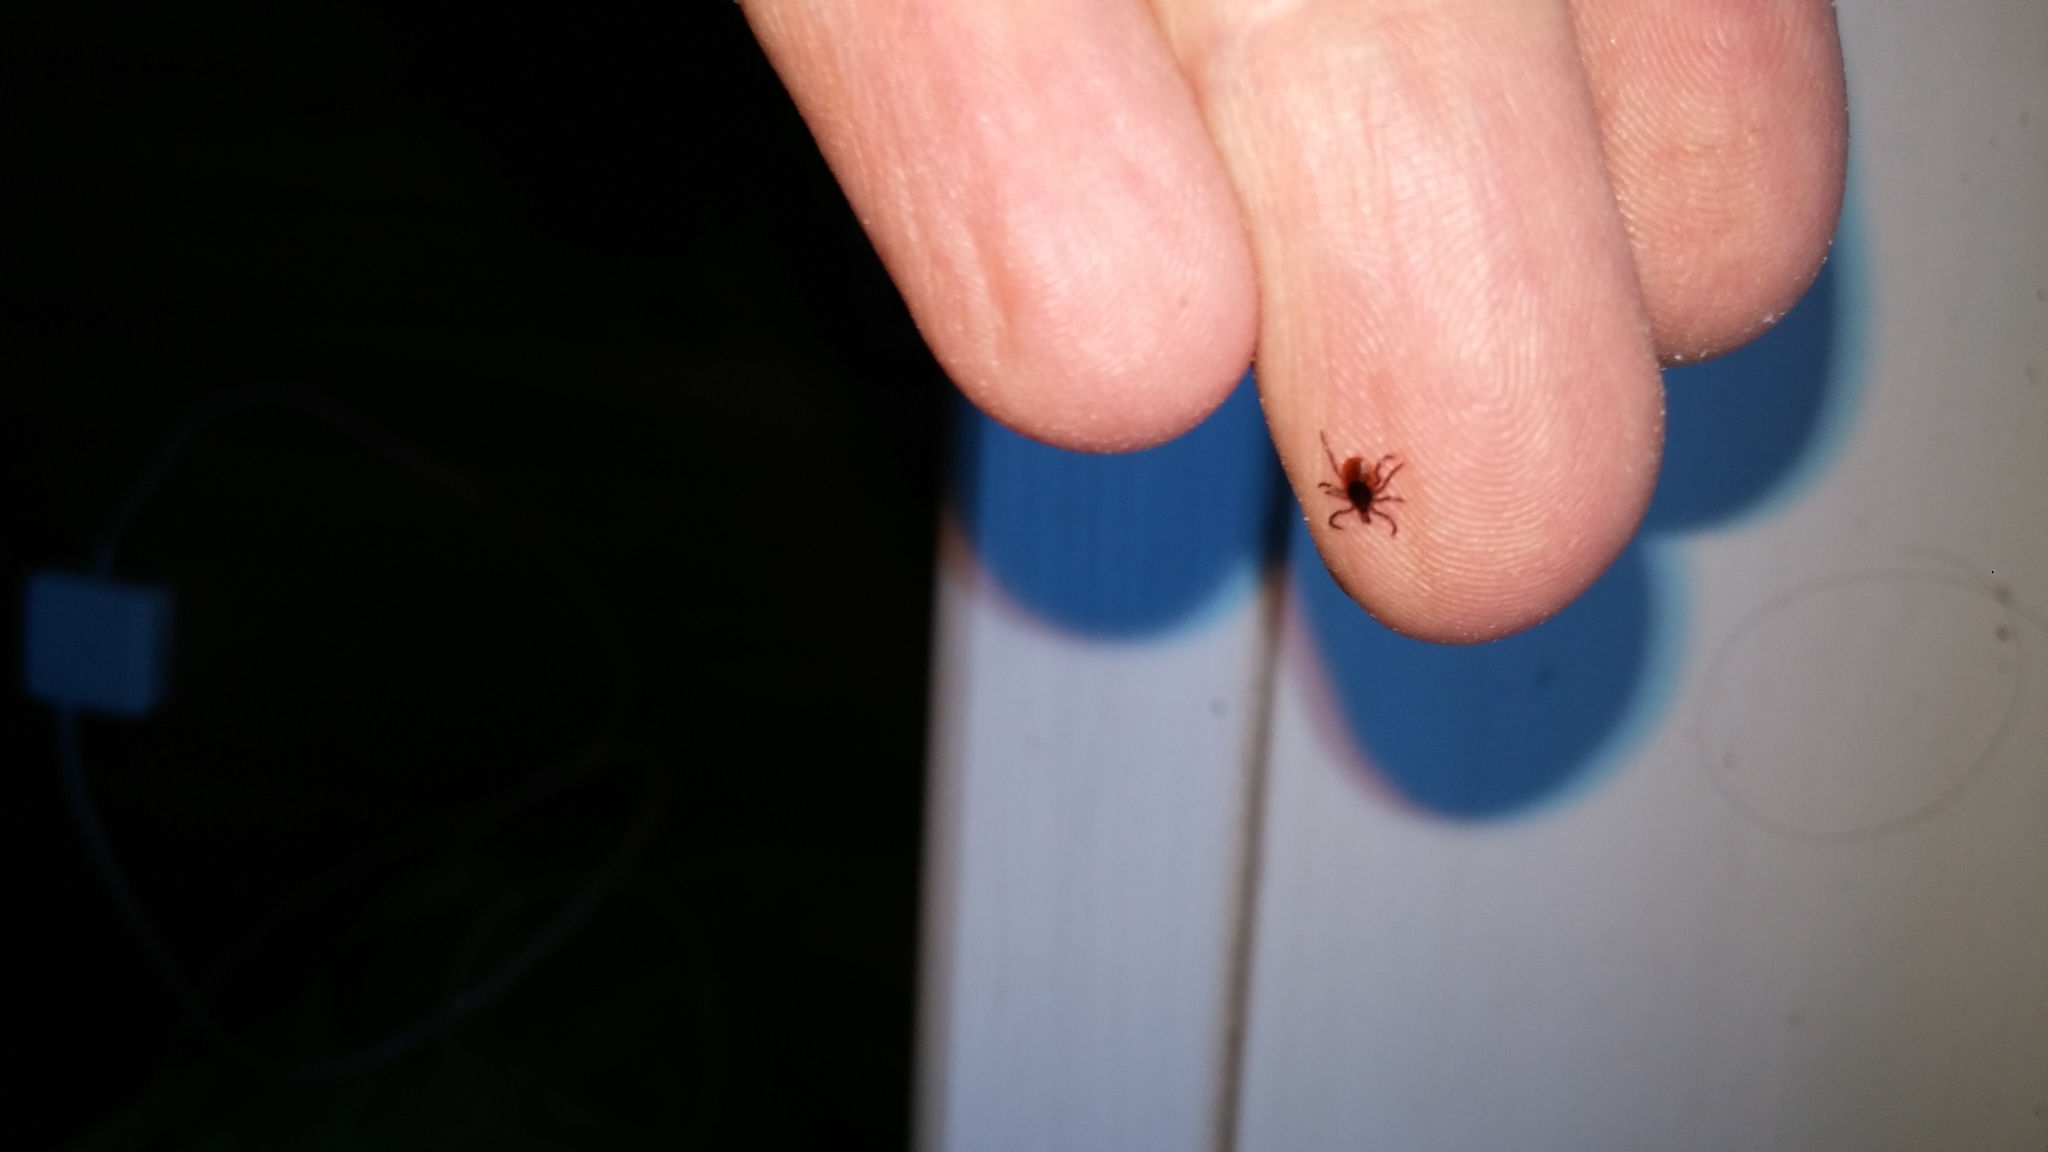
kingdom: Animalia
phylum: Arthropoda
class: Arachnida
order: Ixodida
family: Ixodidae
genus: Ixodes
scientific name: Ixodes scapularis
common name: Black legged tick
